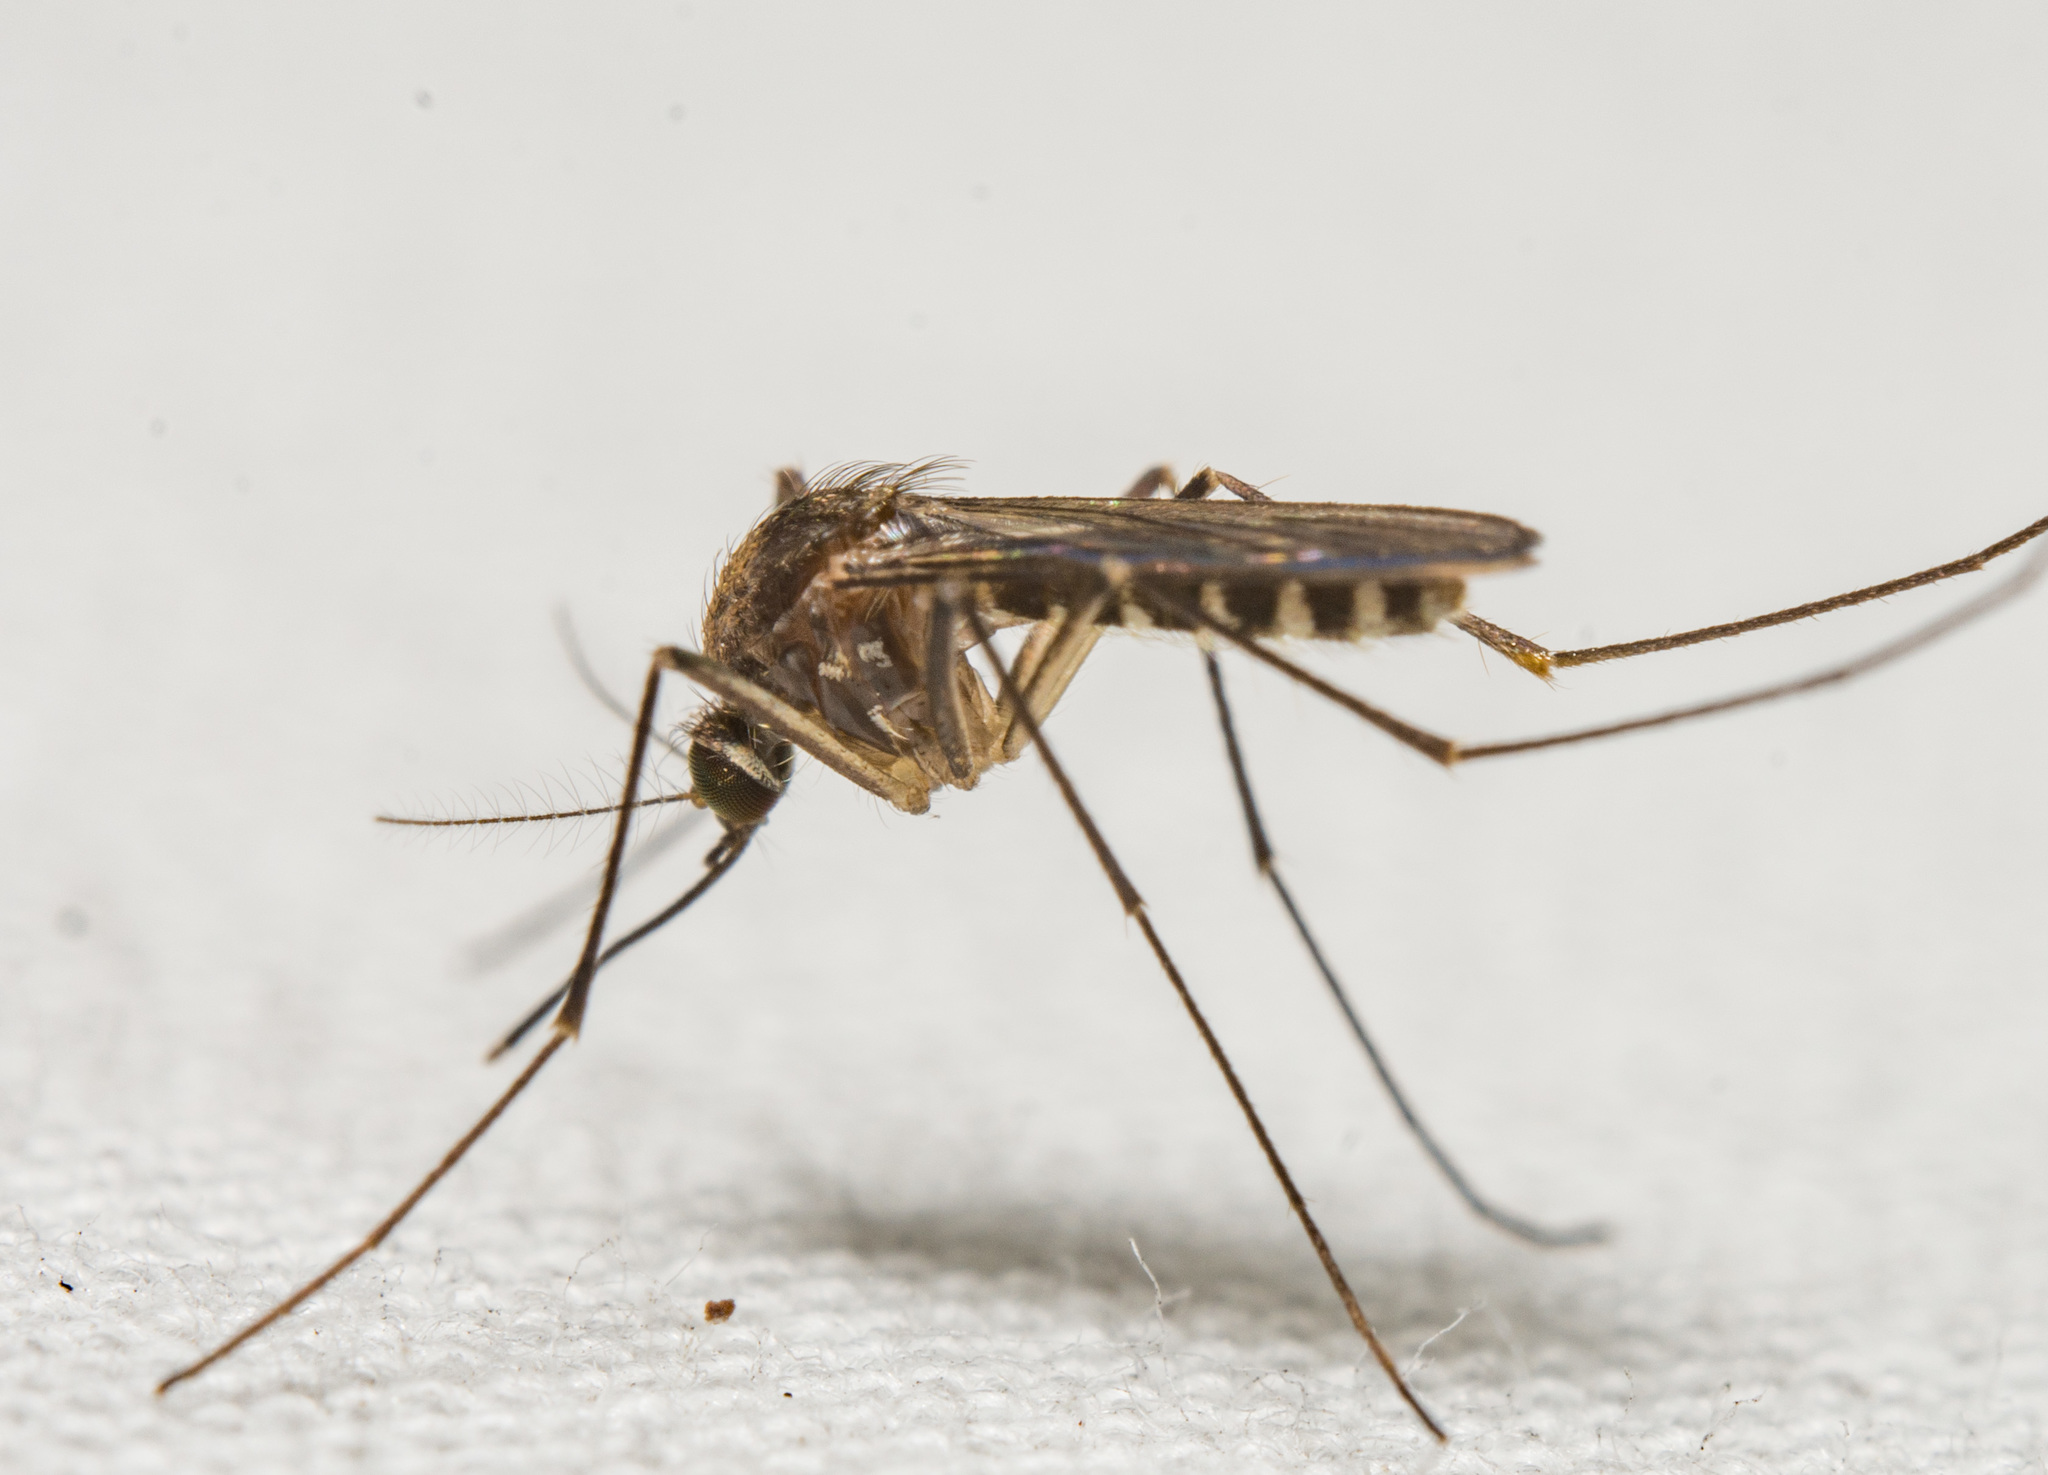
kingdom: Animalia
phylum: Arthropoda
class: Insecta
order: Diptera
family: Culicidae
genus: Culex
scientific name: Culex erraticus
